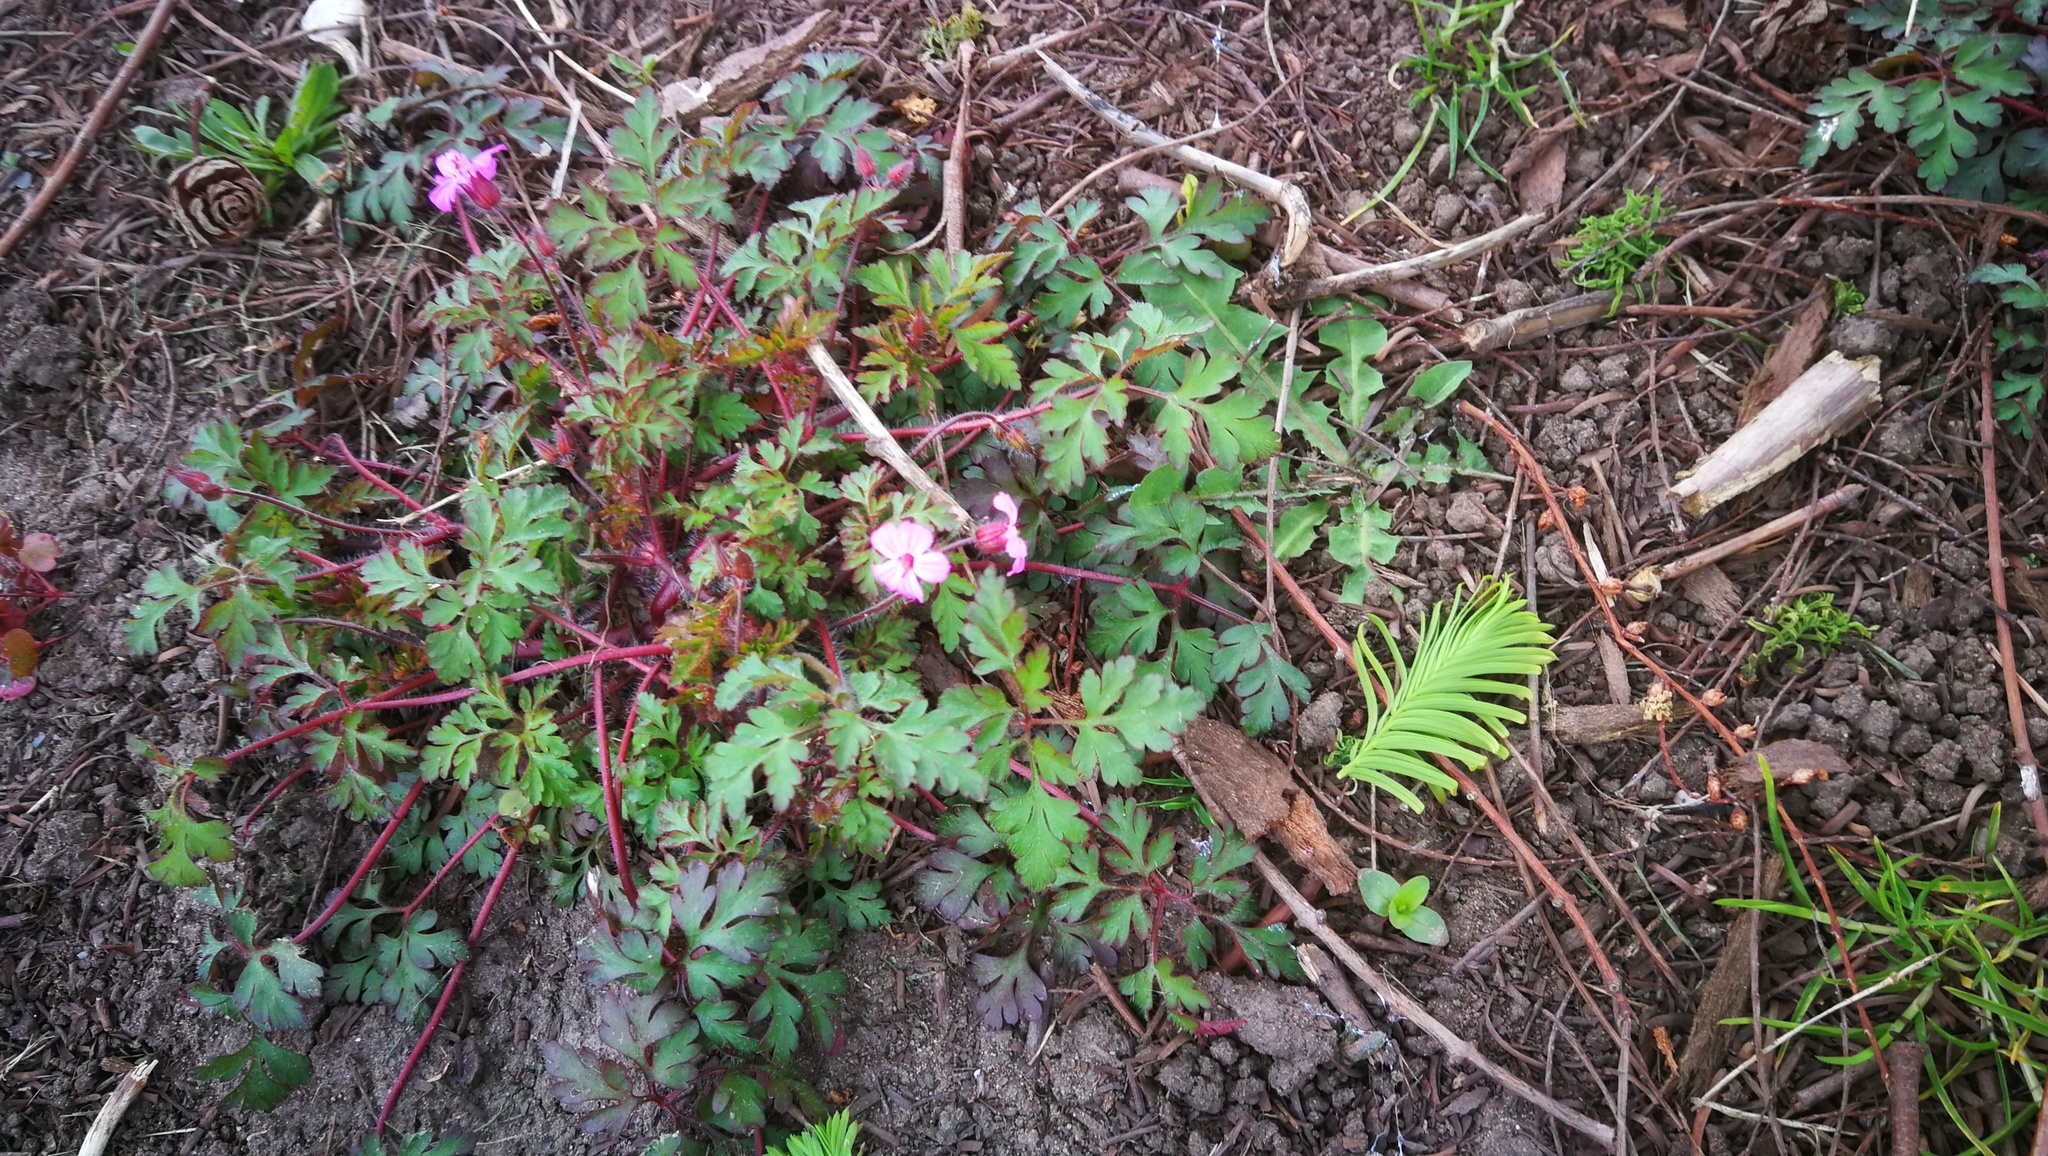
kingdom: Plantae
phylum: Tracheophyta
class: Magnoliopsida
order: Geraniales
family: Geraniaceae
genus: Geranium
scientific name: Geranium robertianum
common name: Herb-robert
